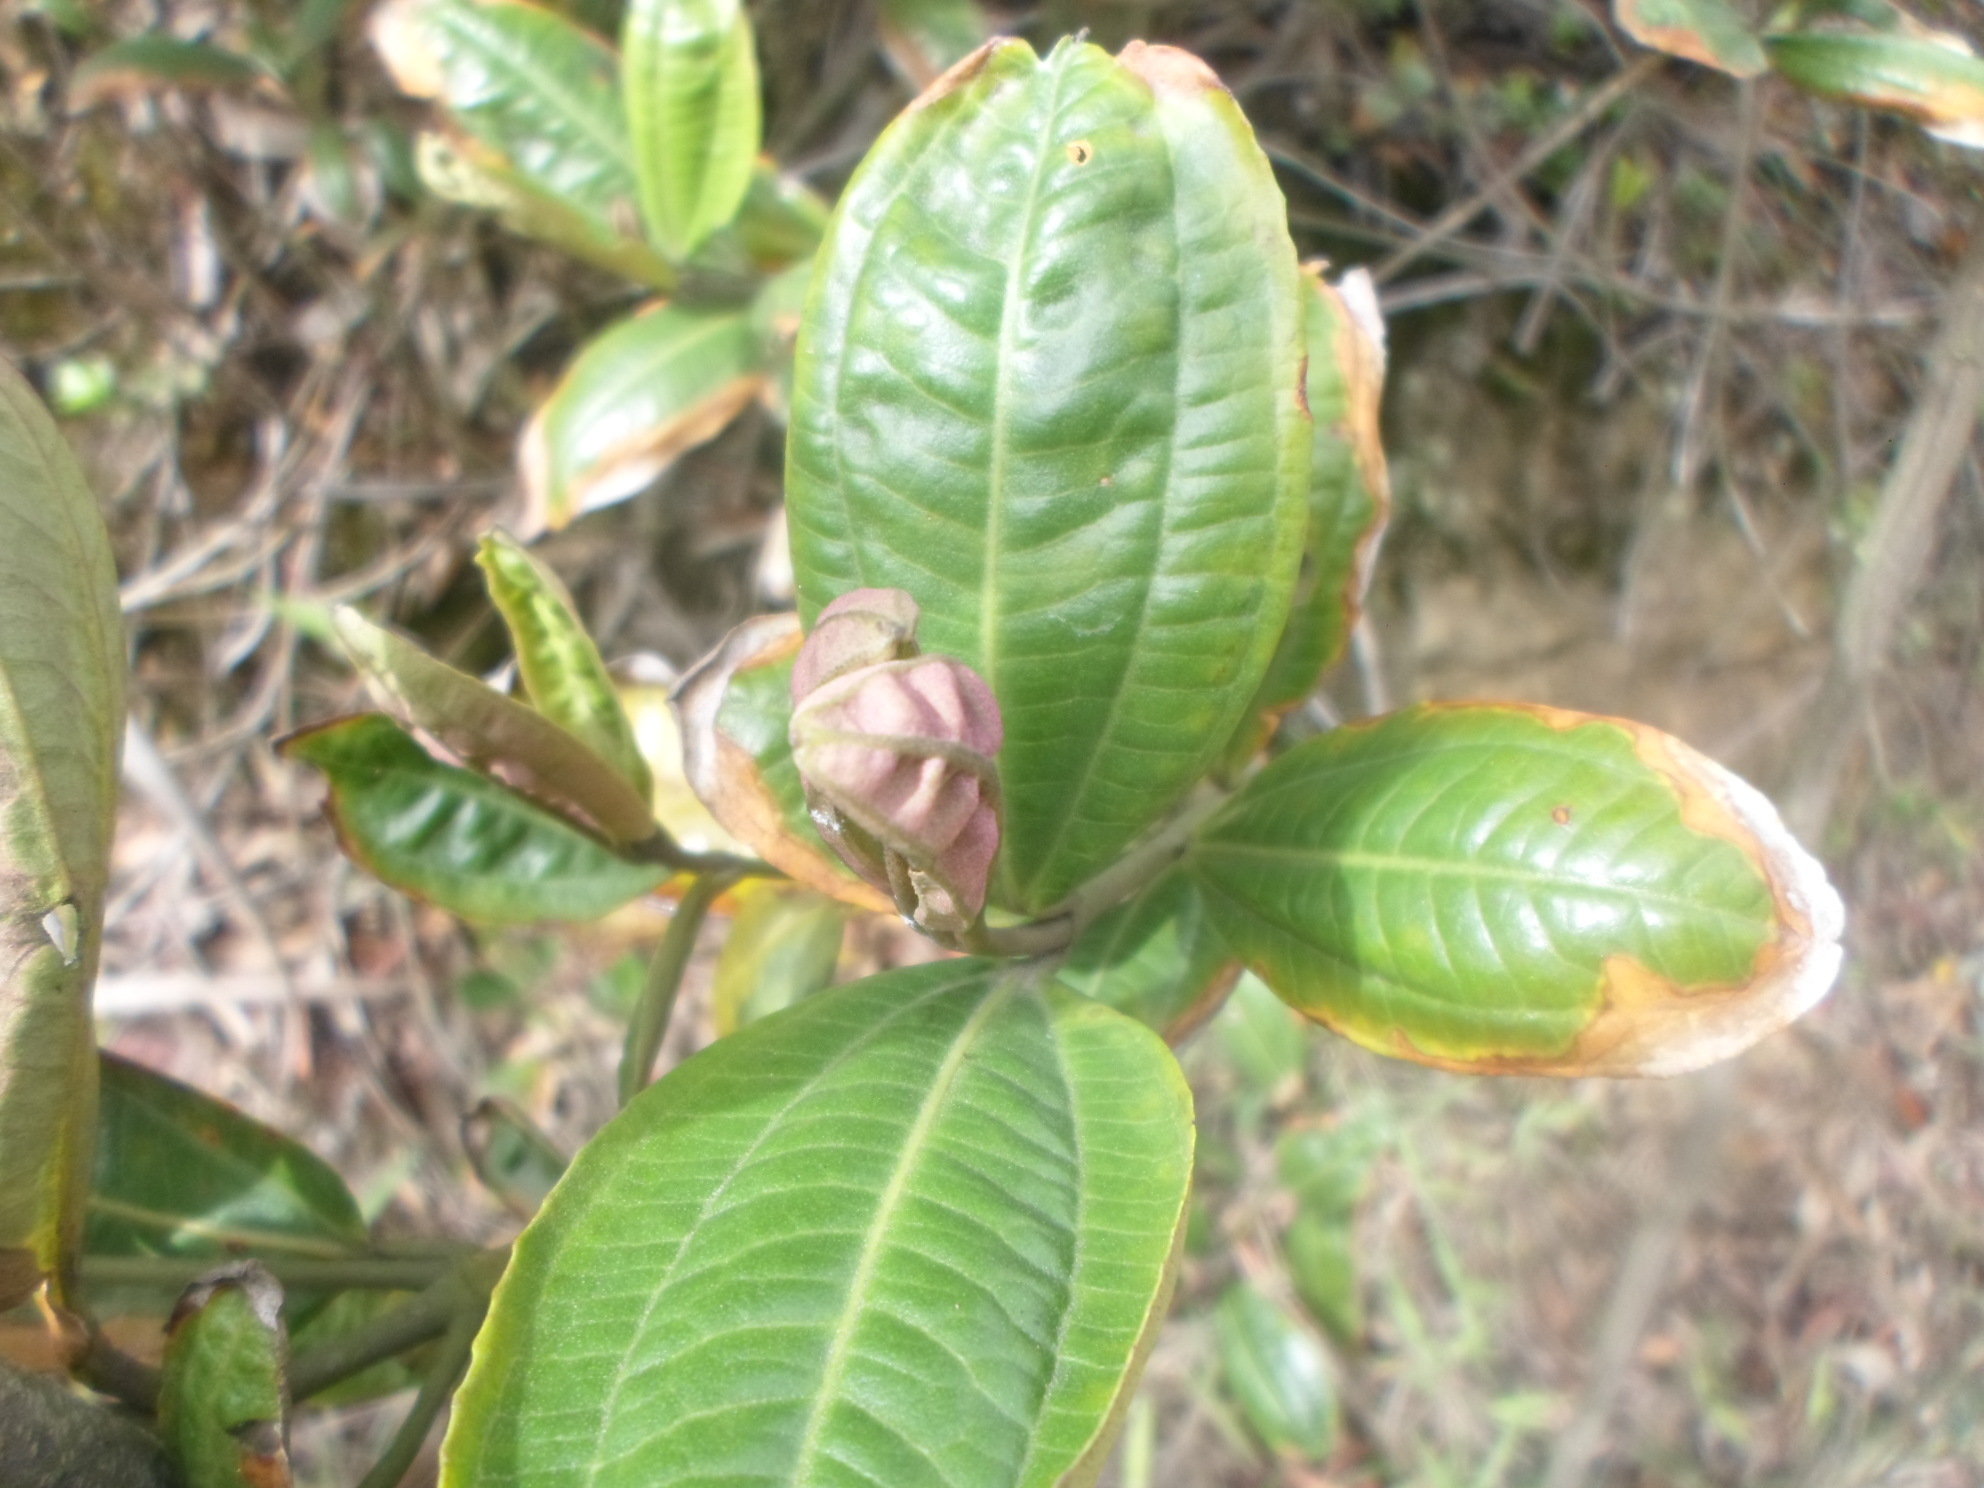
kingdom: Plantae
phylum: Tracheophyta
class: Magnoliopsida
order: Myrtales
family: Melastomataceae
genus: Miconia
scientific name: Miconia squamulosa
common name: Squamulose maya
